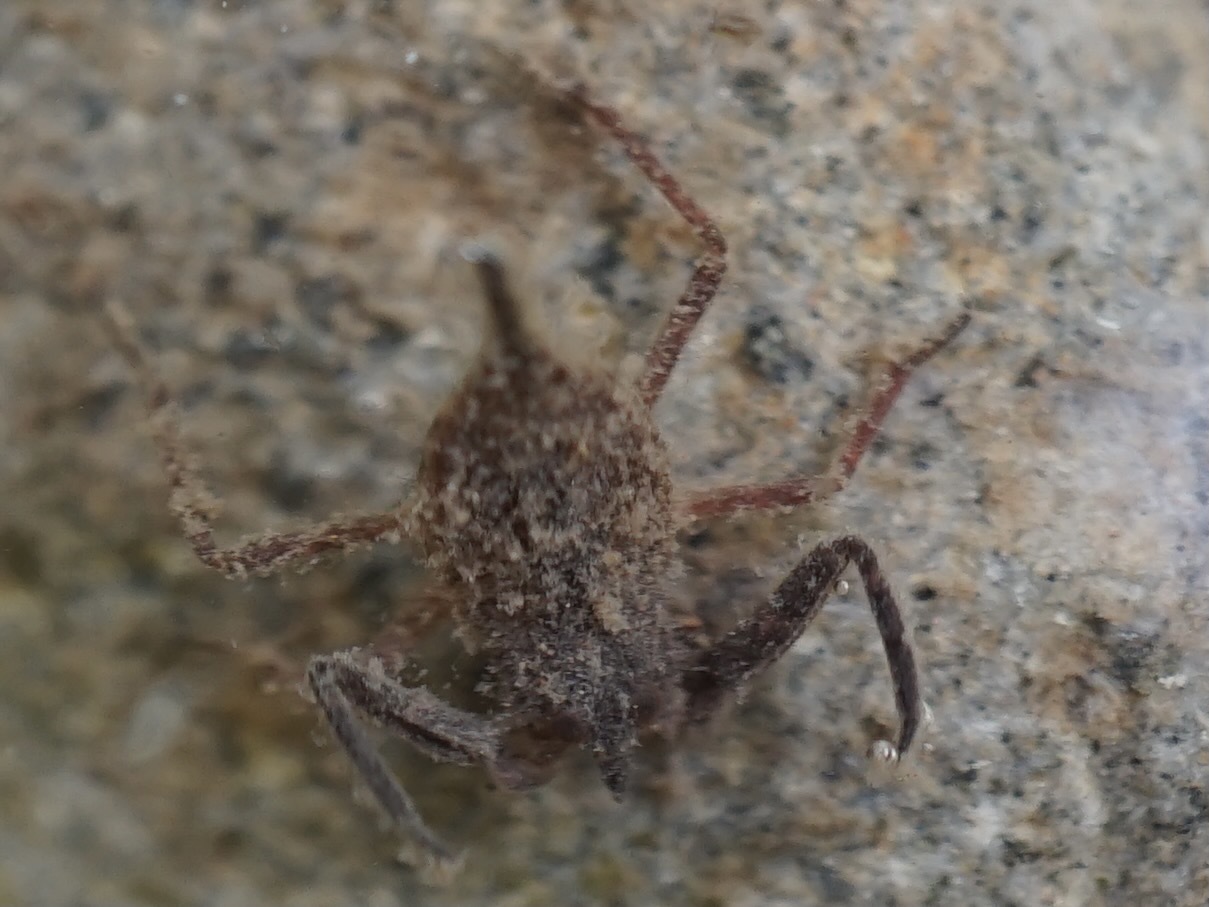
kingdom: Animalia
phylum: Arthropoda
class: Insecta
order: Hemiptera
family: Nepidae
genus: Laccotrephes
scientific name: Laccotrephes japonensis
